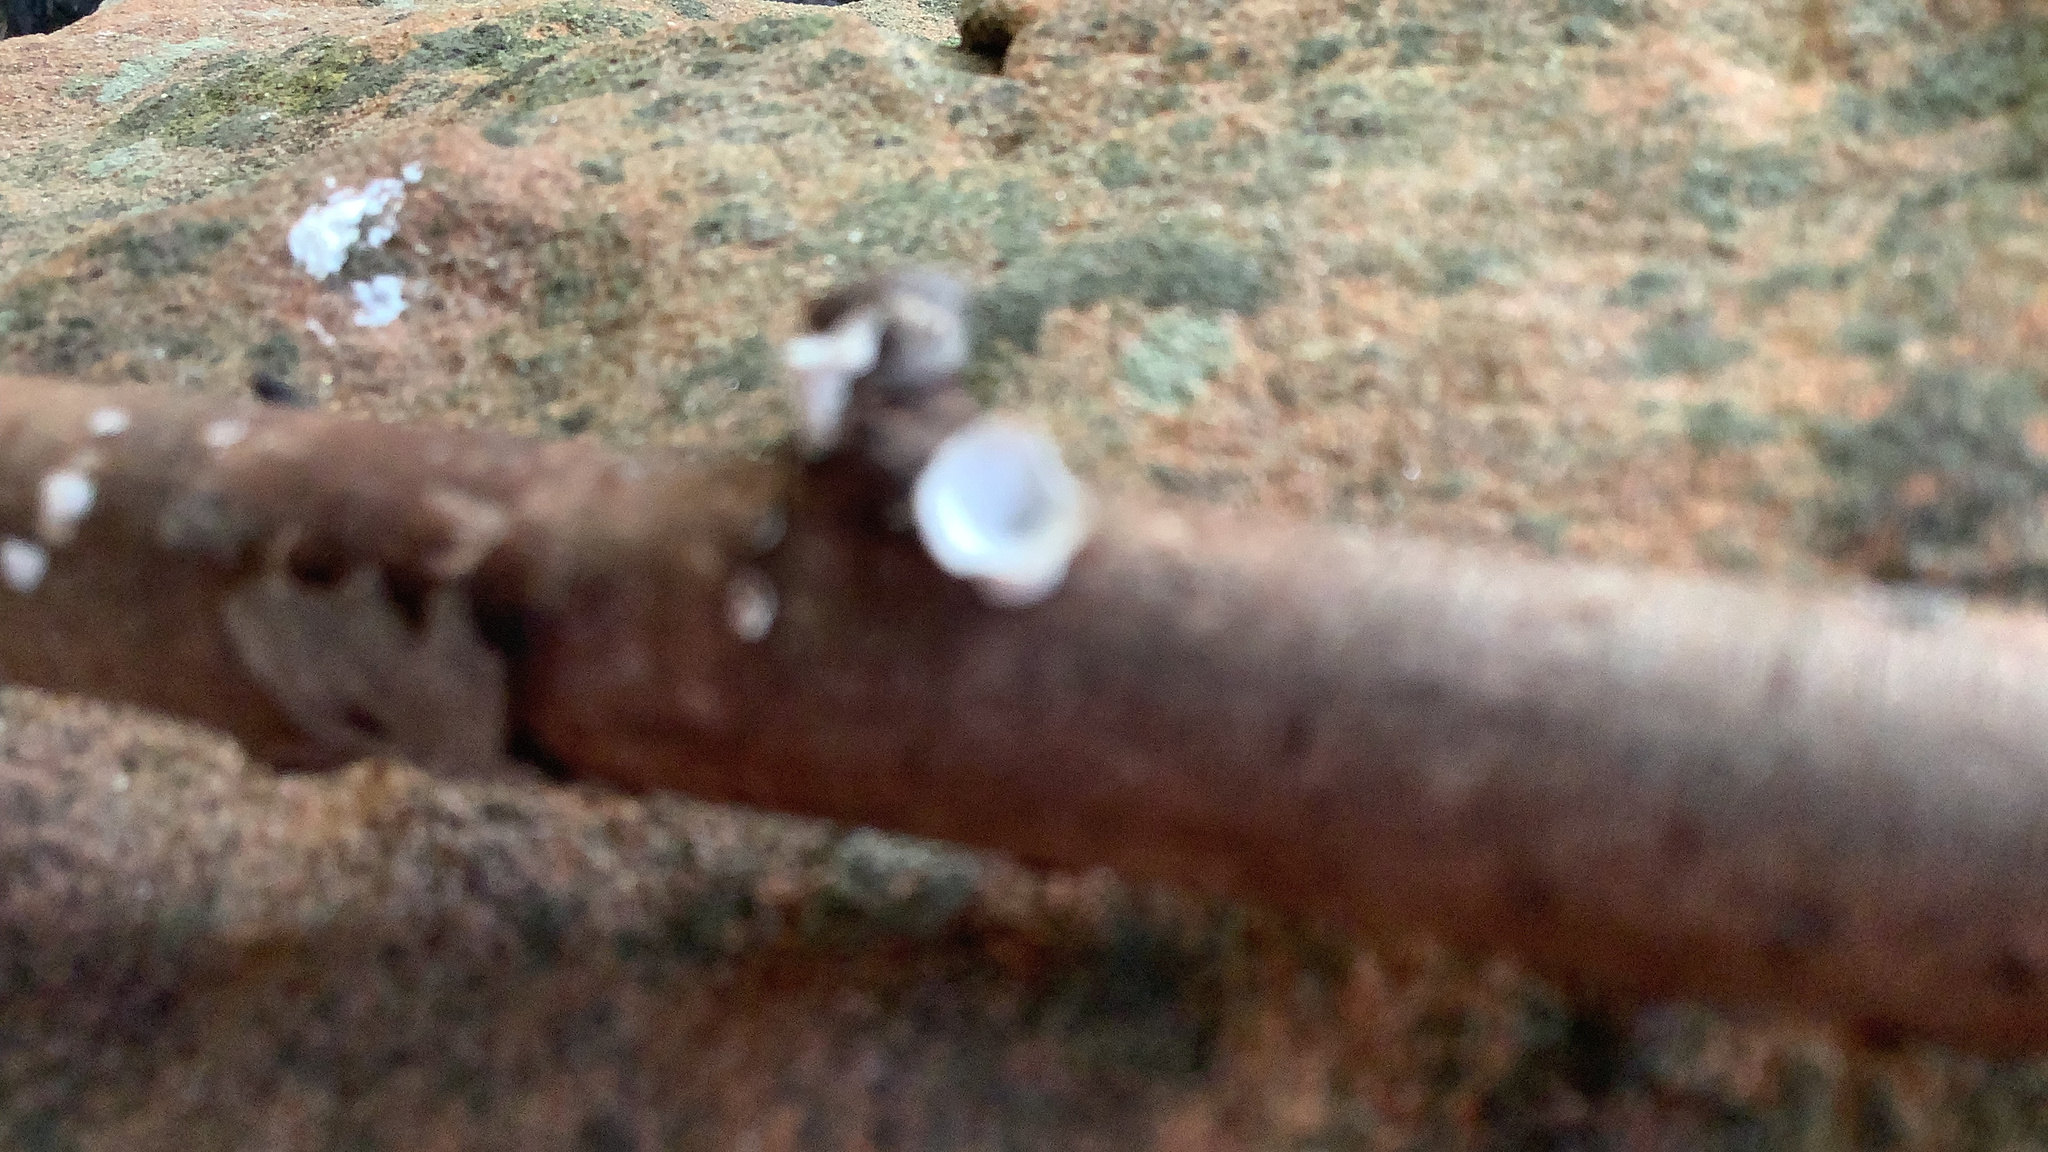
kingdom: Fungi
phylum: Basidiomycota
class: Agaricomycetes
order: Polyporales
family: Polyporaceae
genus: Poronidulus
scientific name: Poronidulus conchifer
